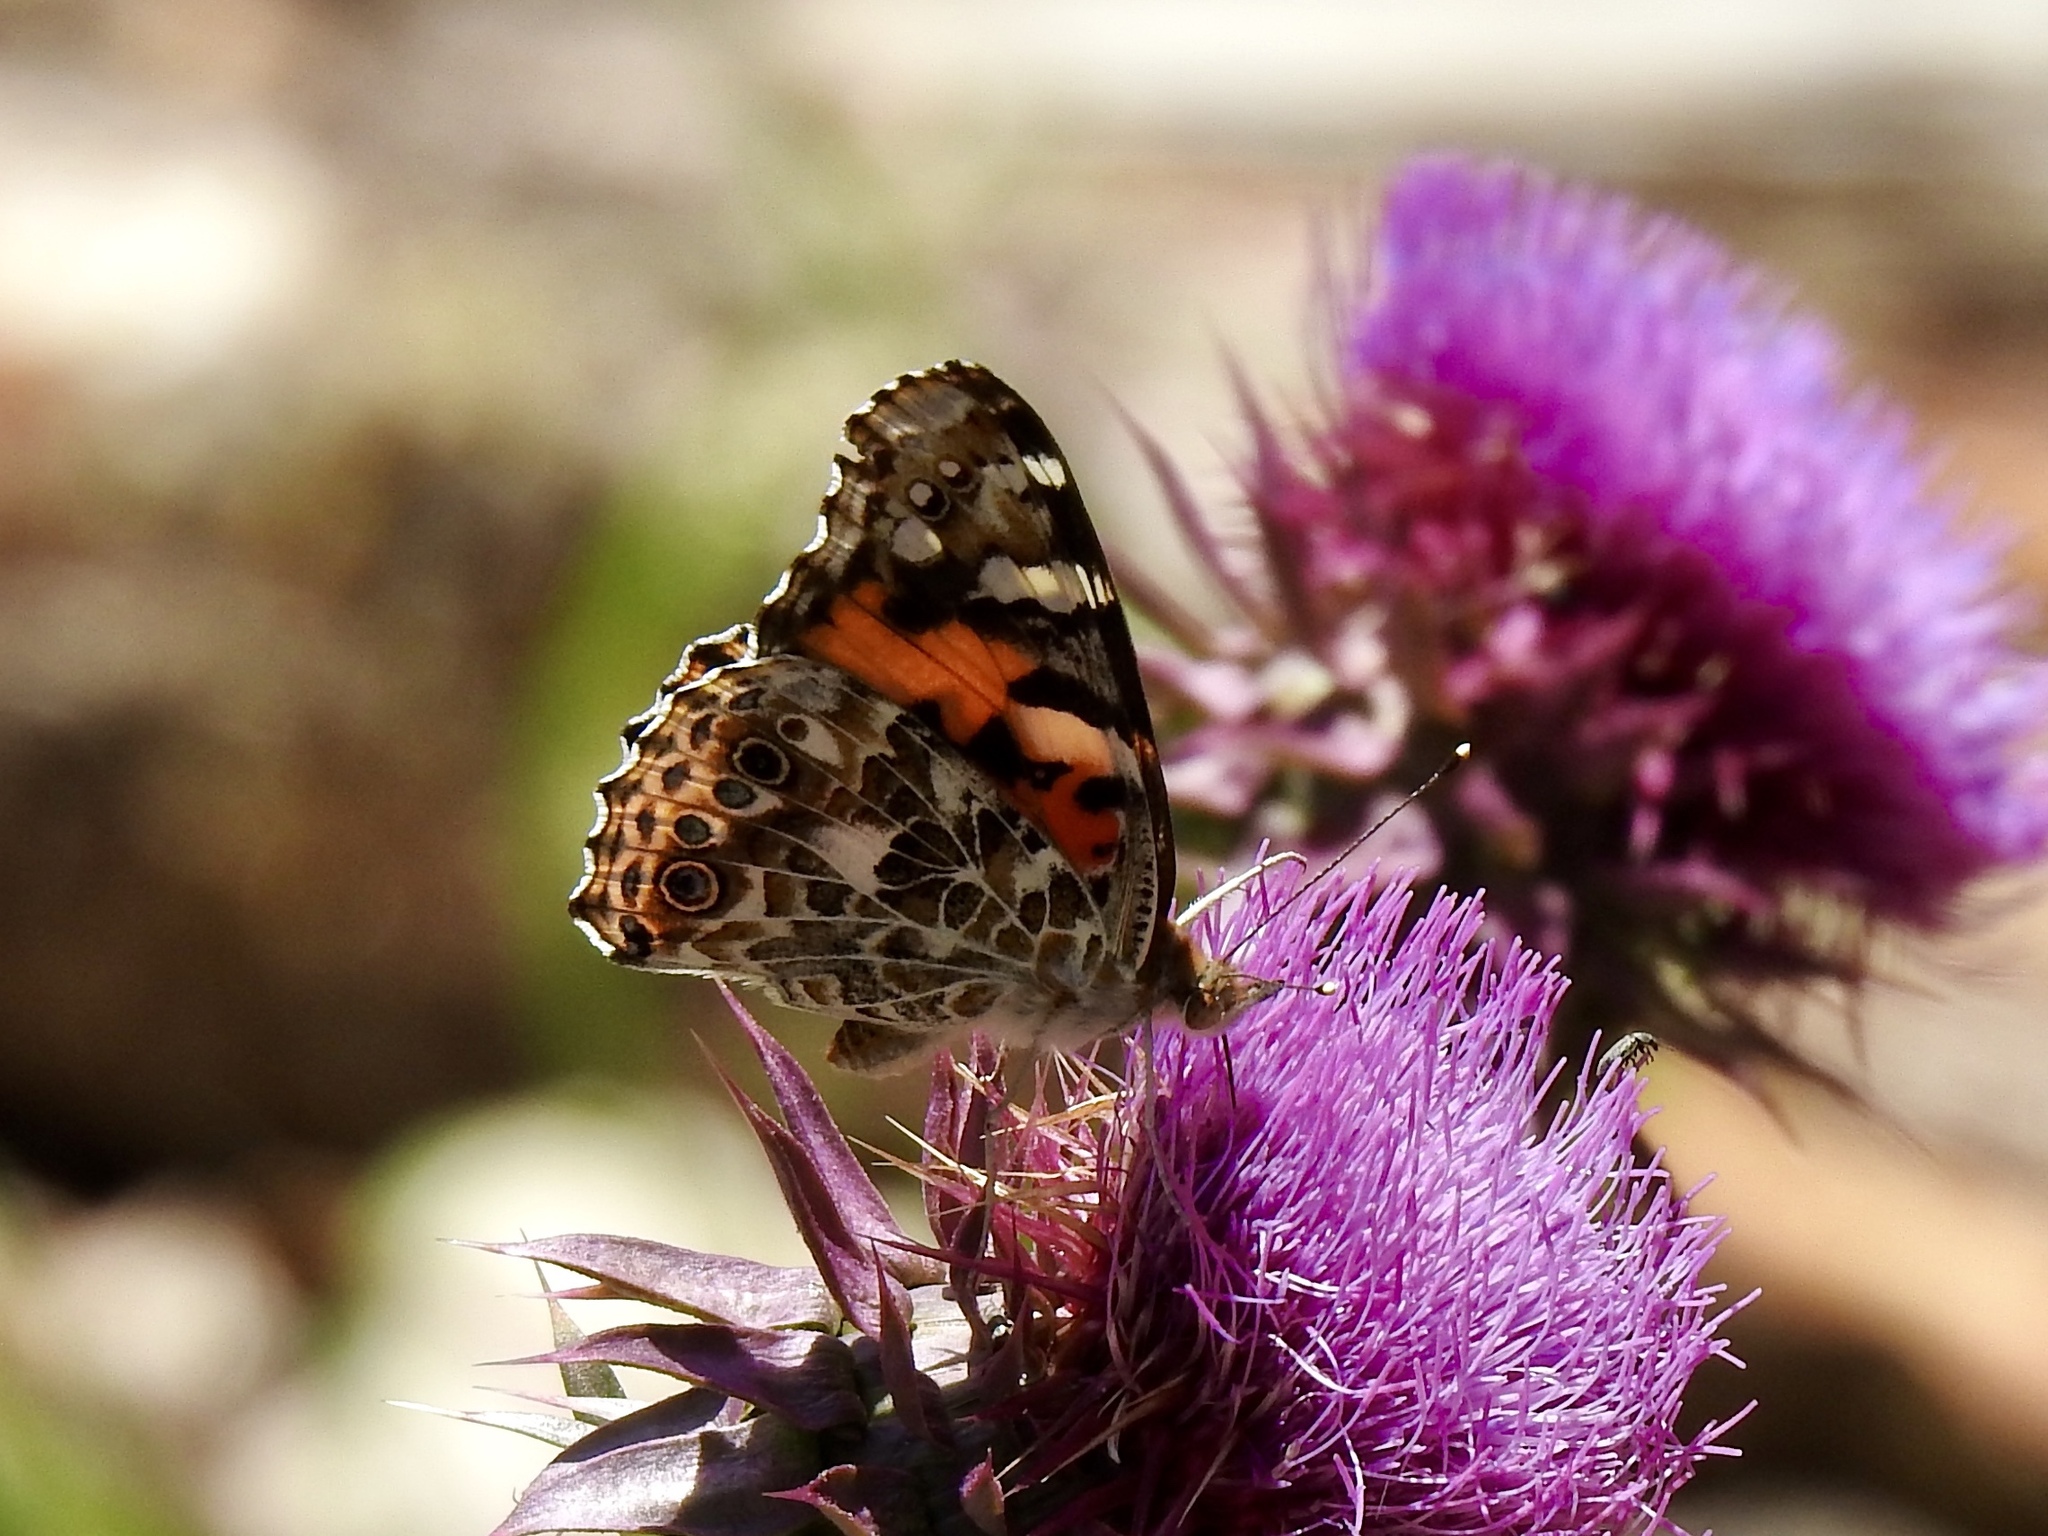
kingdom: Animalia
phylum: Arthropoda
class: Insecta
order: Lepidoptera
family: Nymphalidae
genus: Vanessa
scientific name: Vanessa cardui
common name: Painted lady
